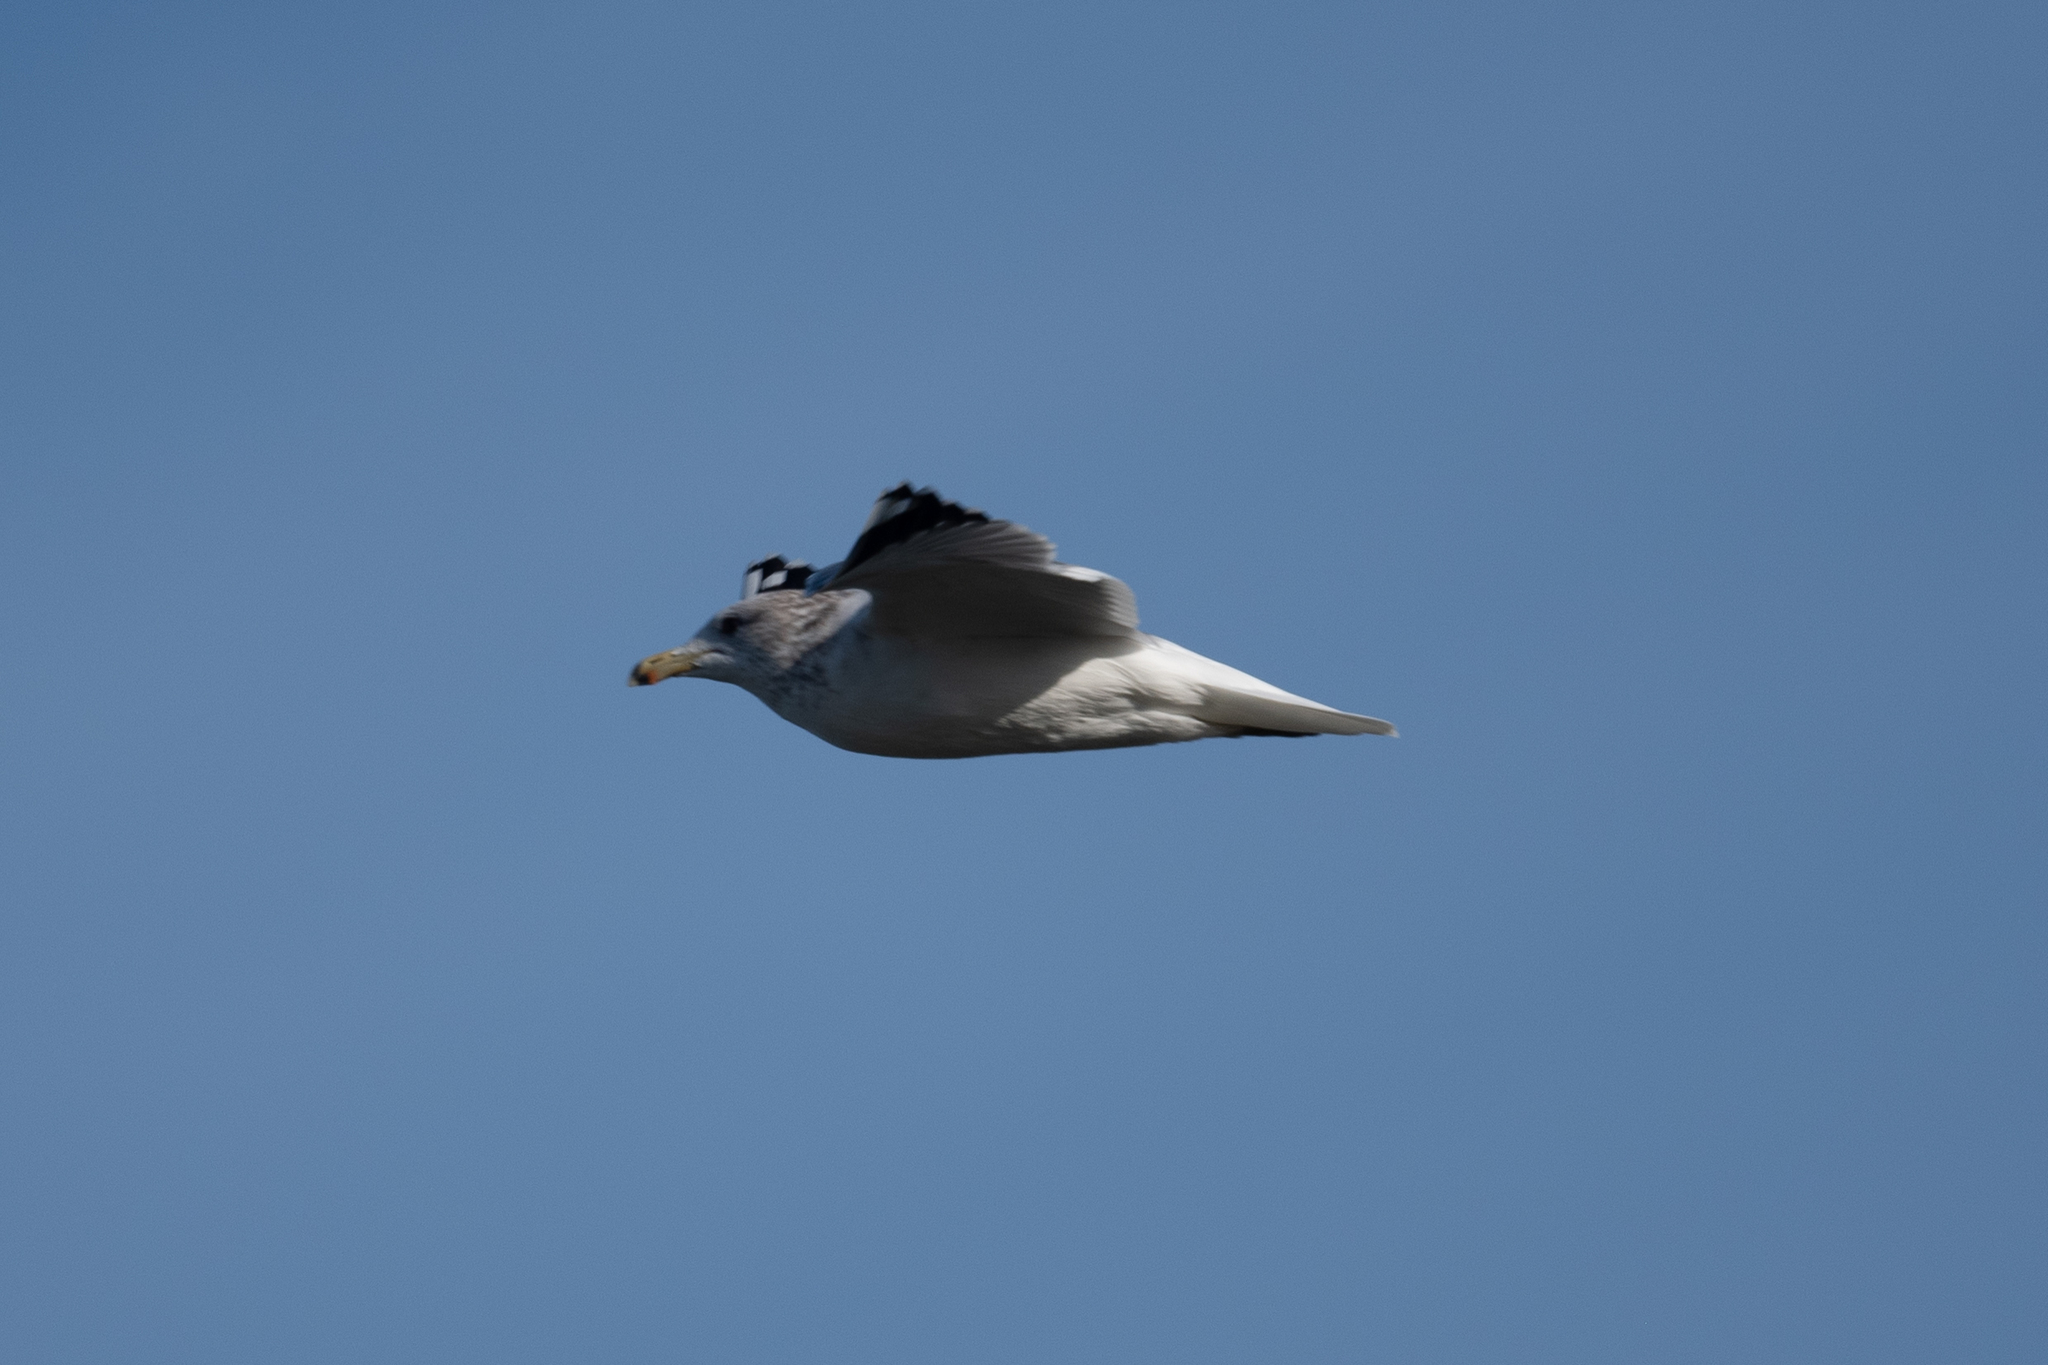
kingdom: Animalia
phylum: Chordata
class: Aves
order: Charadriiformes
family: Laridae
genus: Larus
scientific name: Larus californicus
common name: California gull
